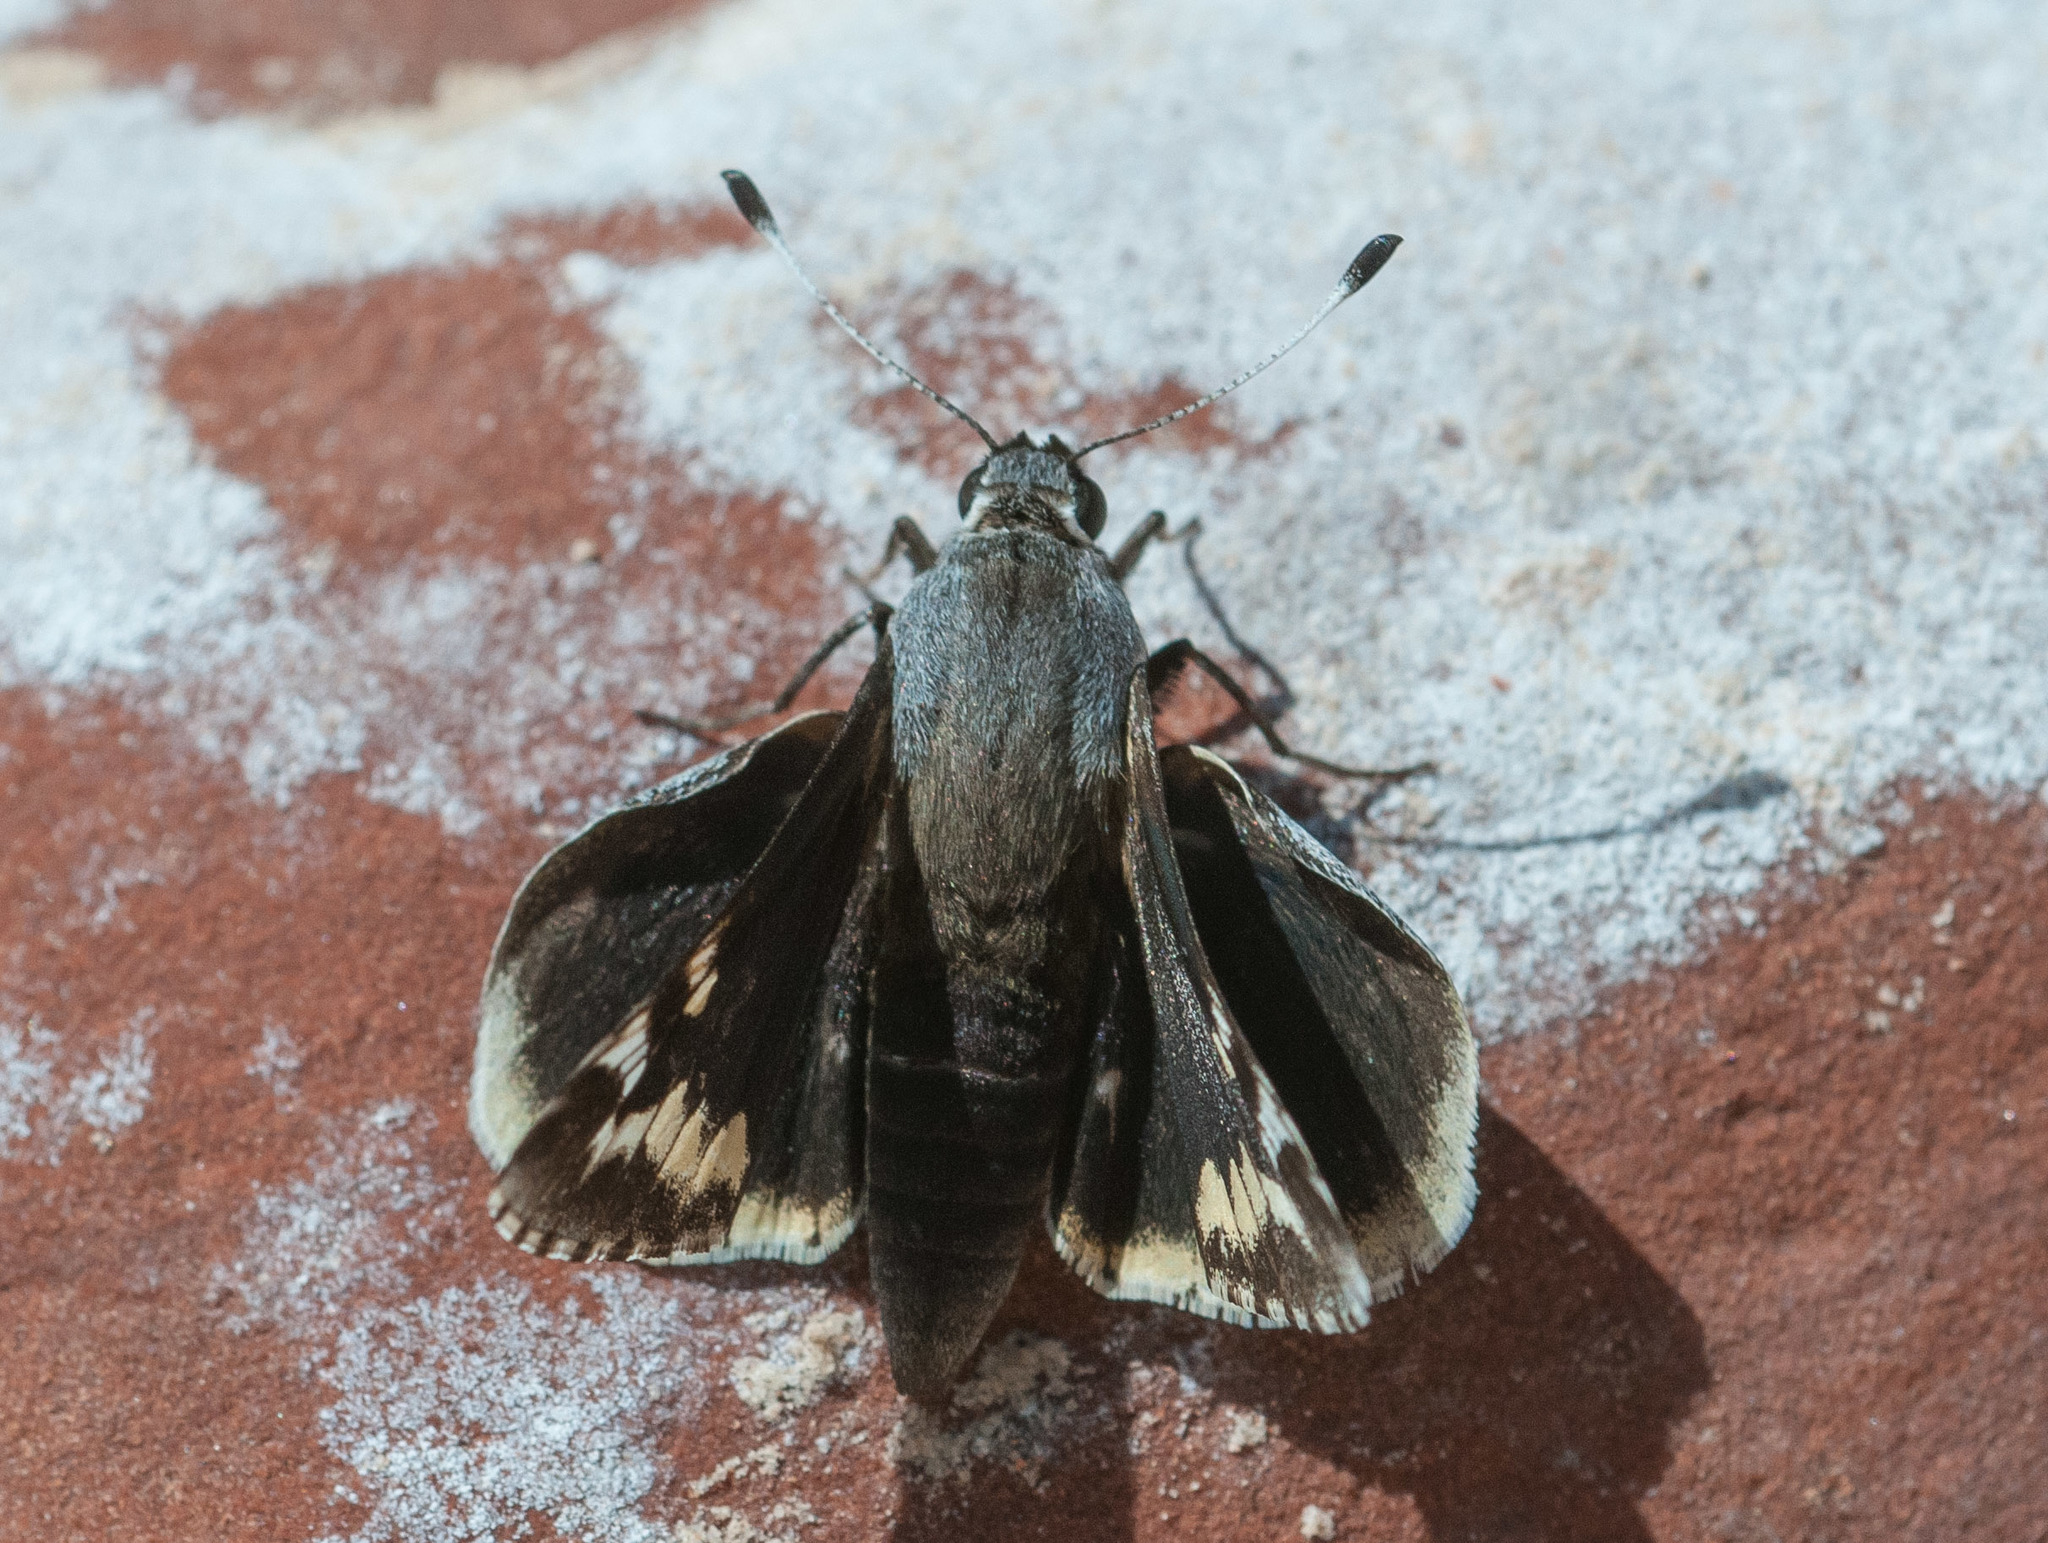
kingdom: Animalia
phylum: Arthropoda
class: Insecta
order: Lepidoptera
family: Hesperiidae
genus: Megathymus
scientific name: Megathymus yuccae
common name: Yucca giant-skipper
